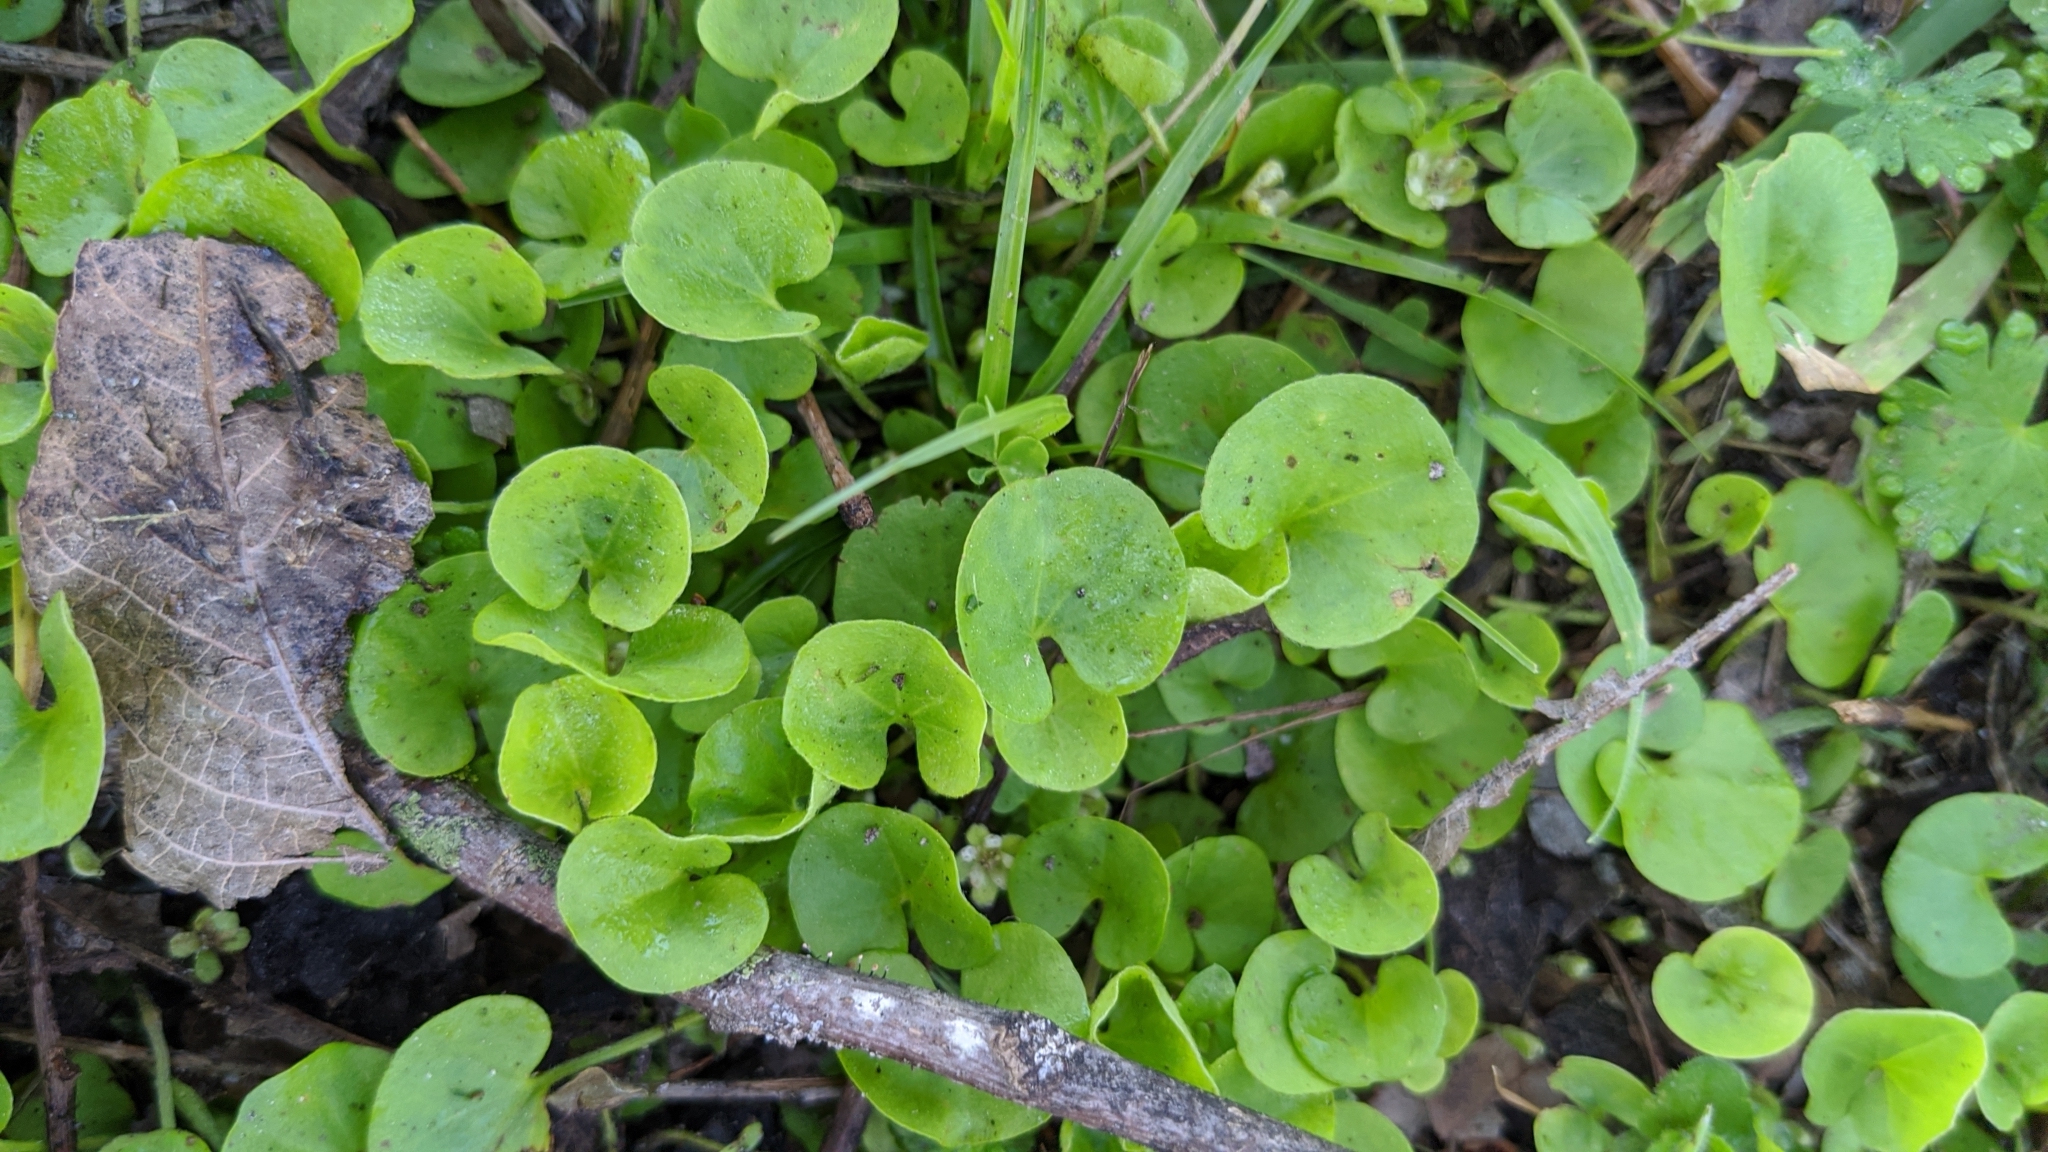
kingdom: Plantae
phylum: Tracheophyta
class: Magnoliopsida
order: Solanales
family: Convolvulaceae
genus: Dichondra
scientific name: Dichondra carolinensis
